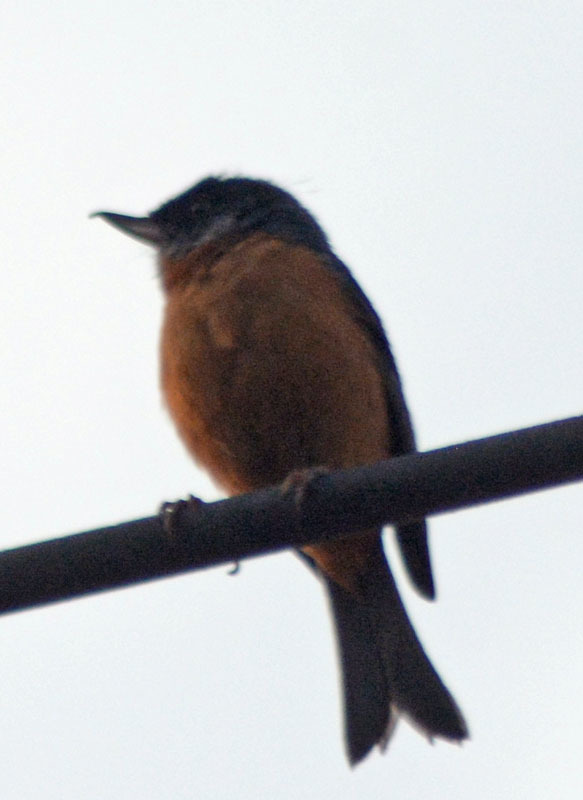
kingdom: Animalia
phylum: Chordata
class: Aves
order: Passeriformes
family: Thraupidae
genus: Diglossa
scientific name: Diglossa baritula
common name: Cinnamon-bellied flowerpiercer
